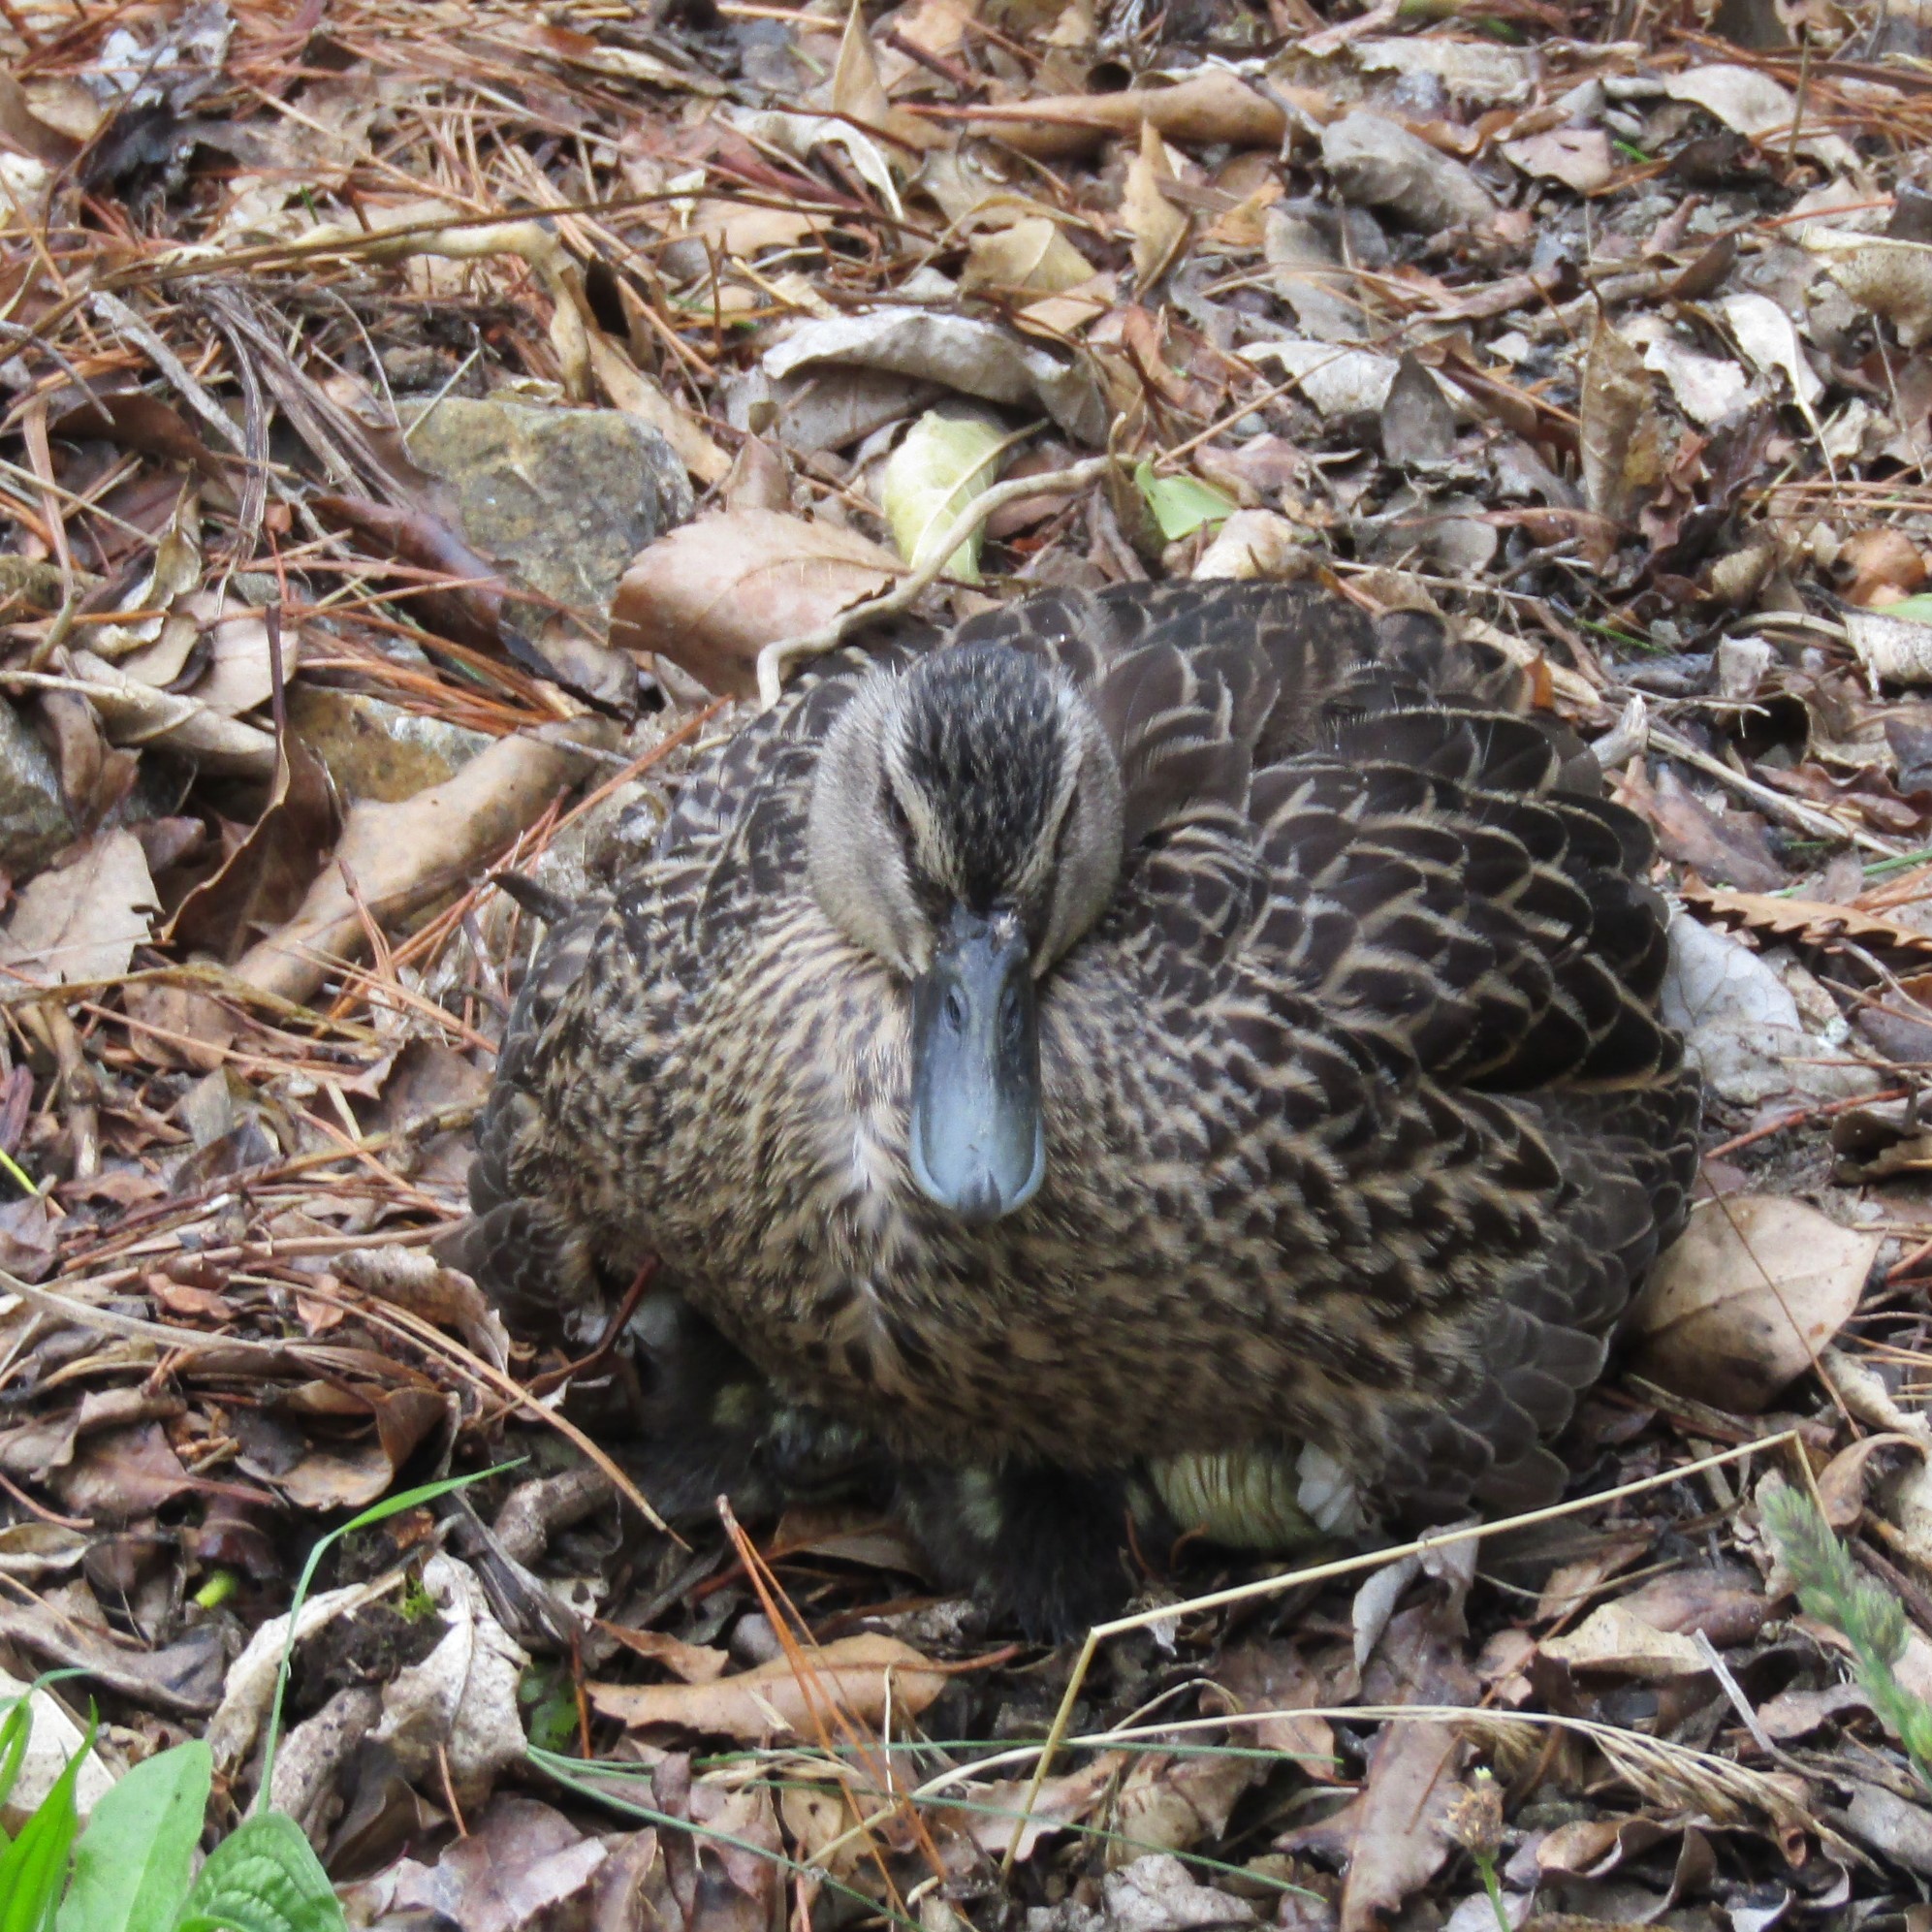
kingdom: Animalia
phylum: Chordata
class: Aves
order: Anseriformes
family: Anatidae
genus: Anas
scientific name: Anas
